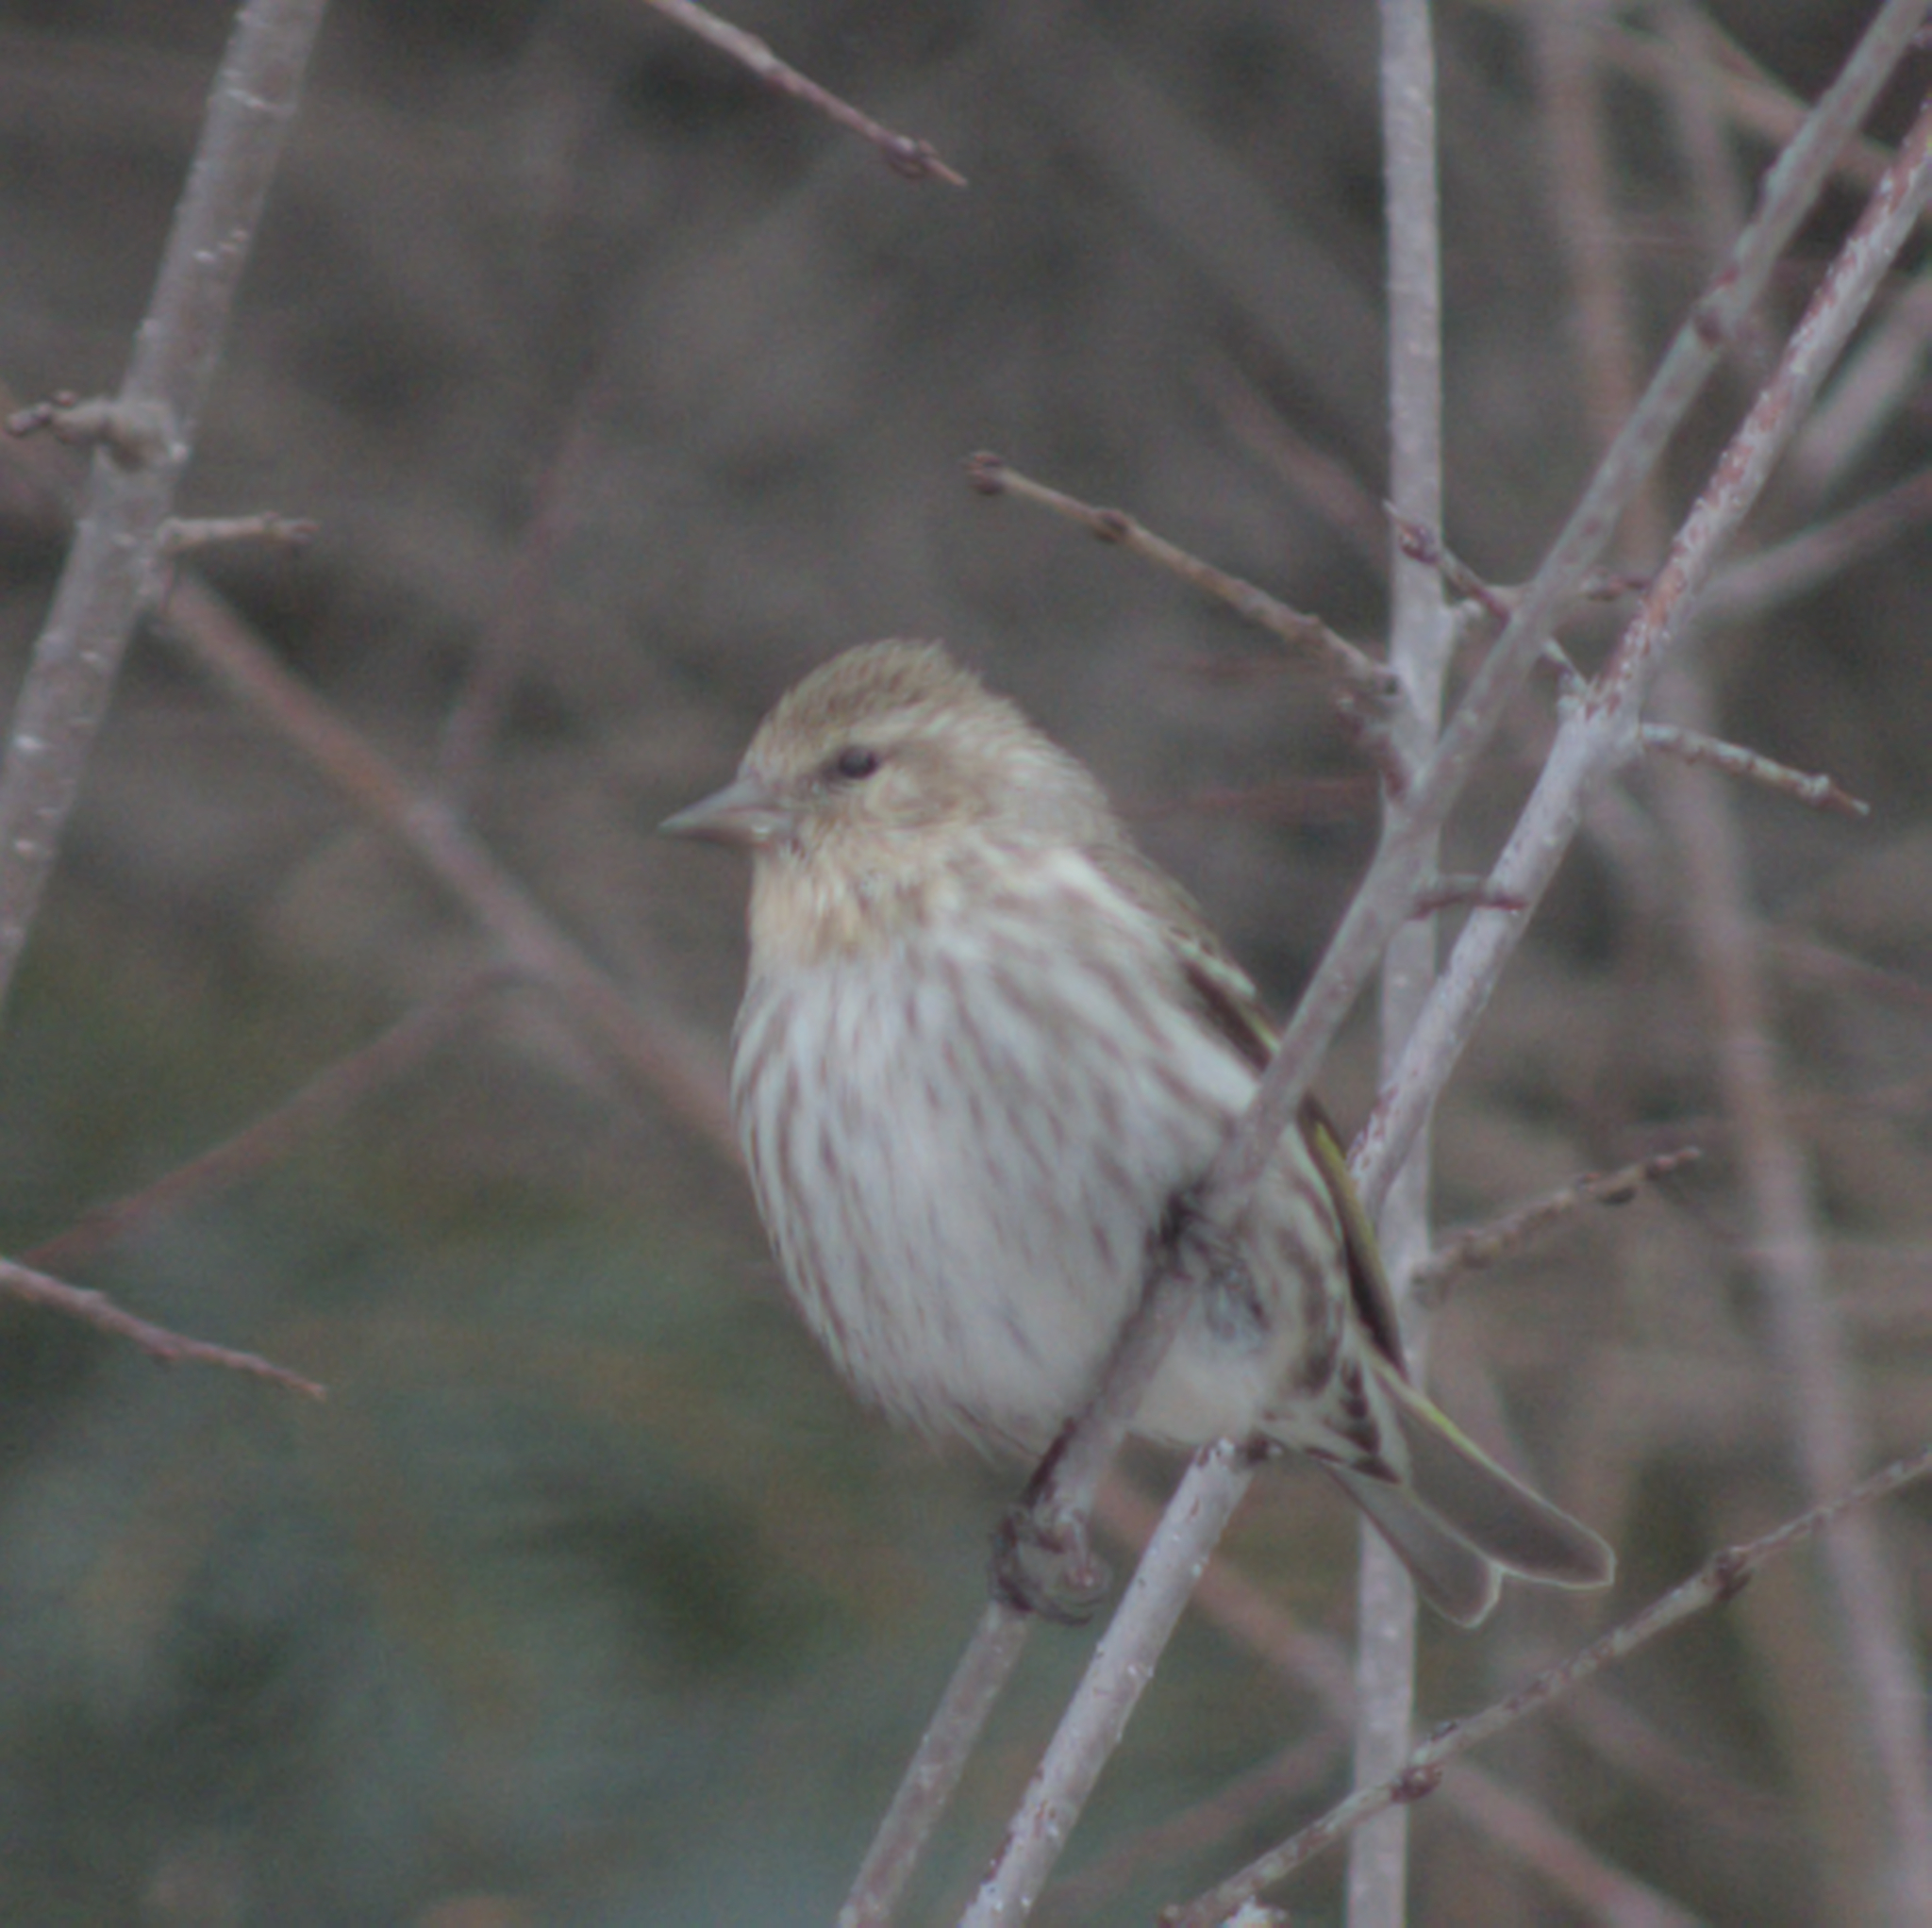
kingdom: Animalia
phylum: Chordata
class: Aves
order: Passeriformes
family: Fringillidae
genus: Spinus
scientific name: Spinus pinus
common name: Pine siskin
